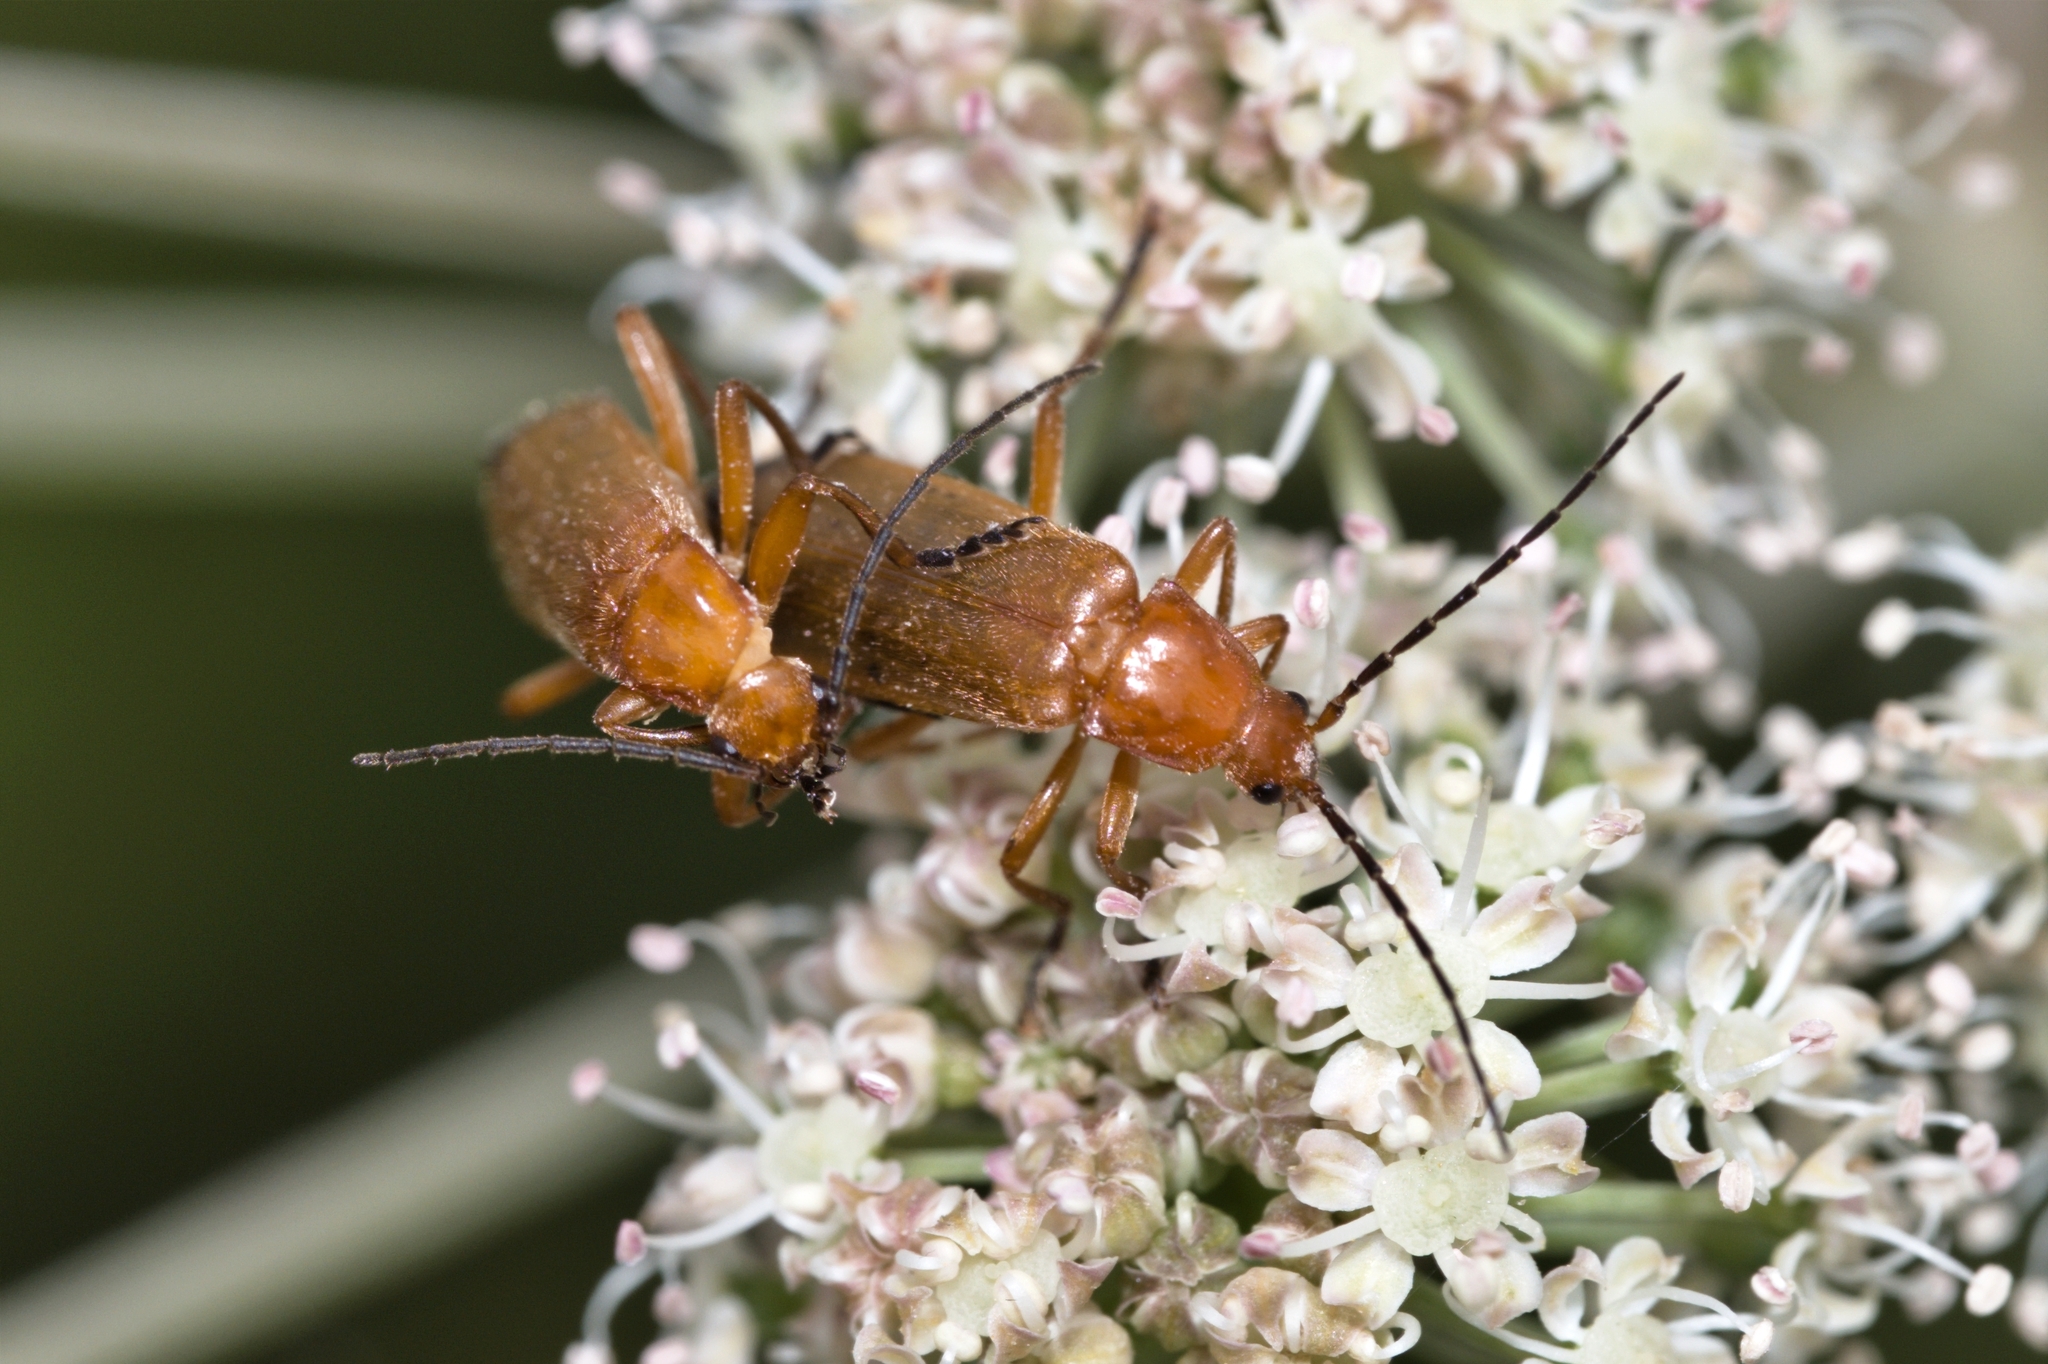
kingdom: Animalia
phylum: Arthropoda
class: Insecta
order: Coleoptera
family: Cantharidae
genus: Rhagonycha
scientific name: Rhagonycha fulva
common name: Common red soldier beetle
